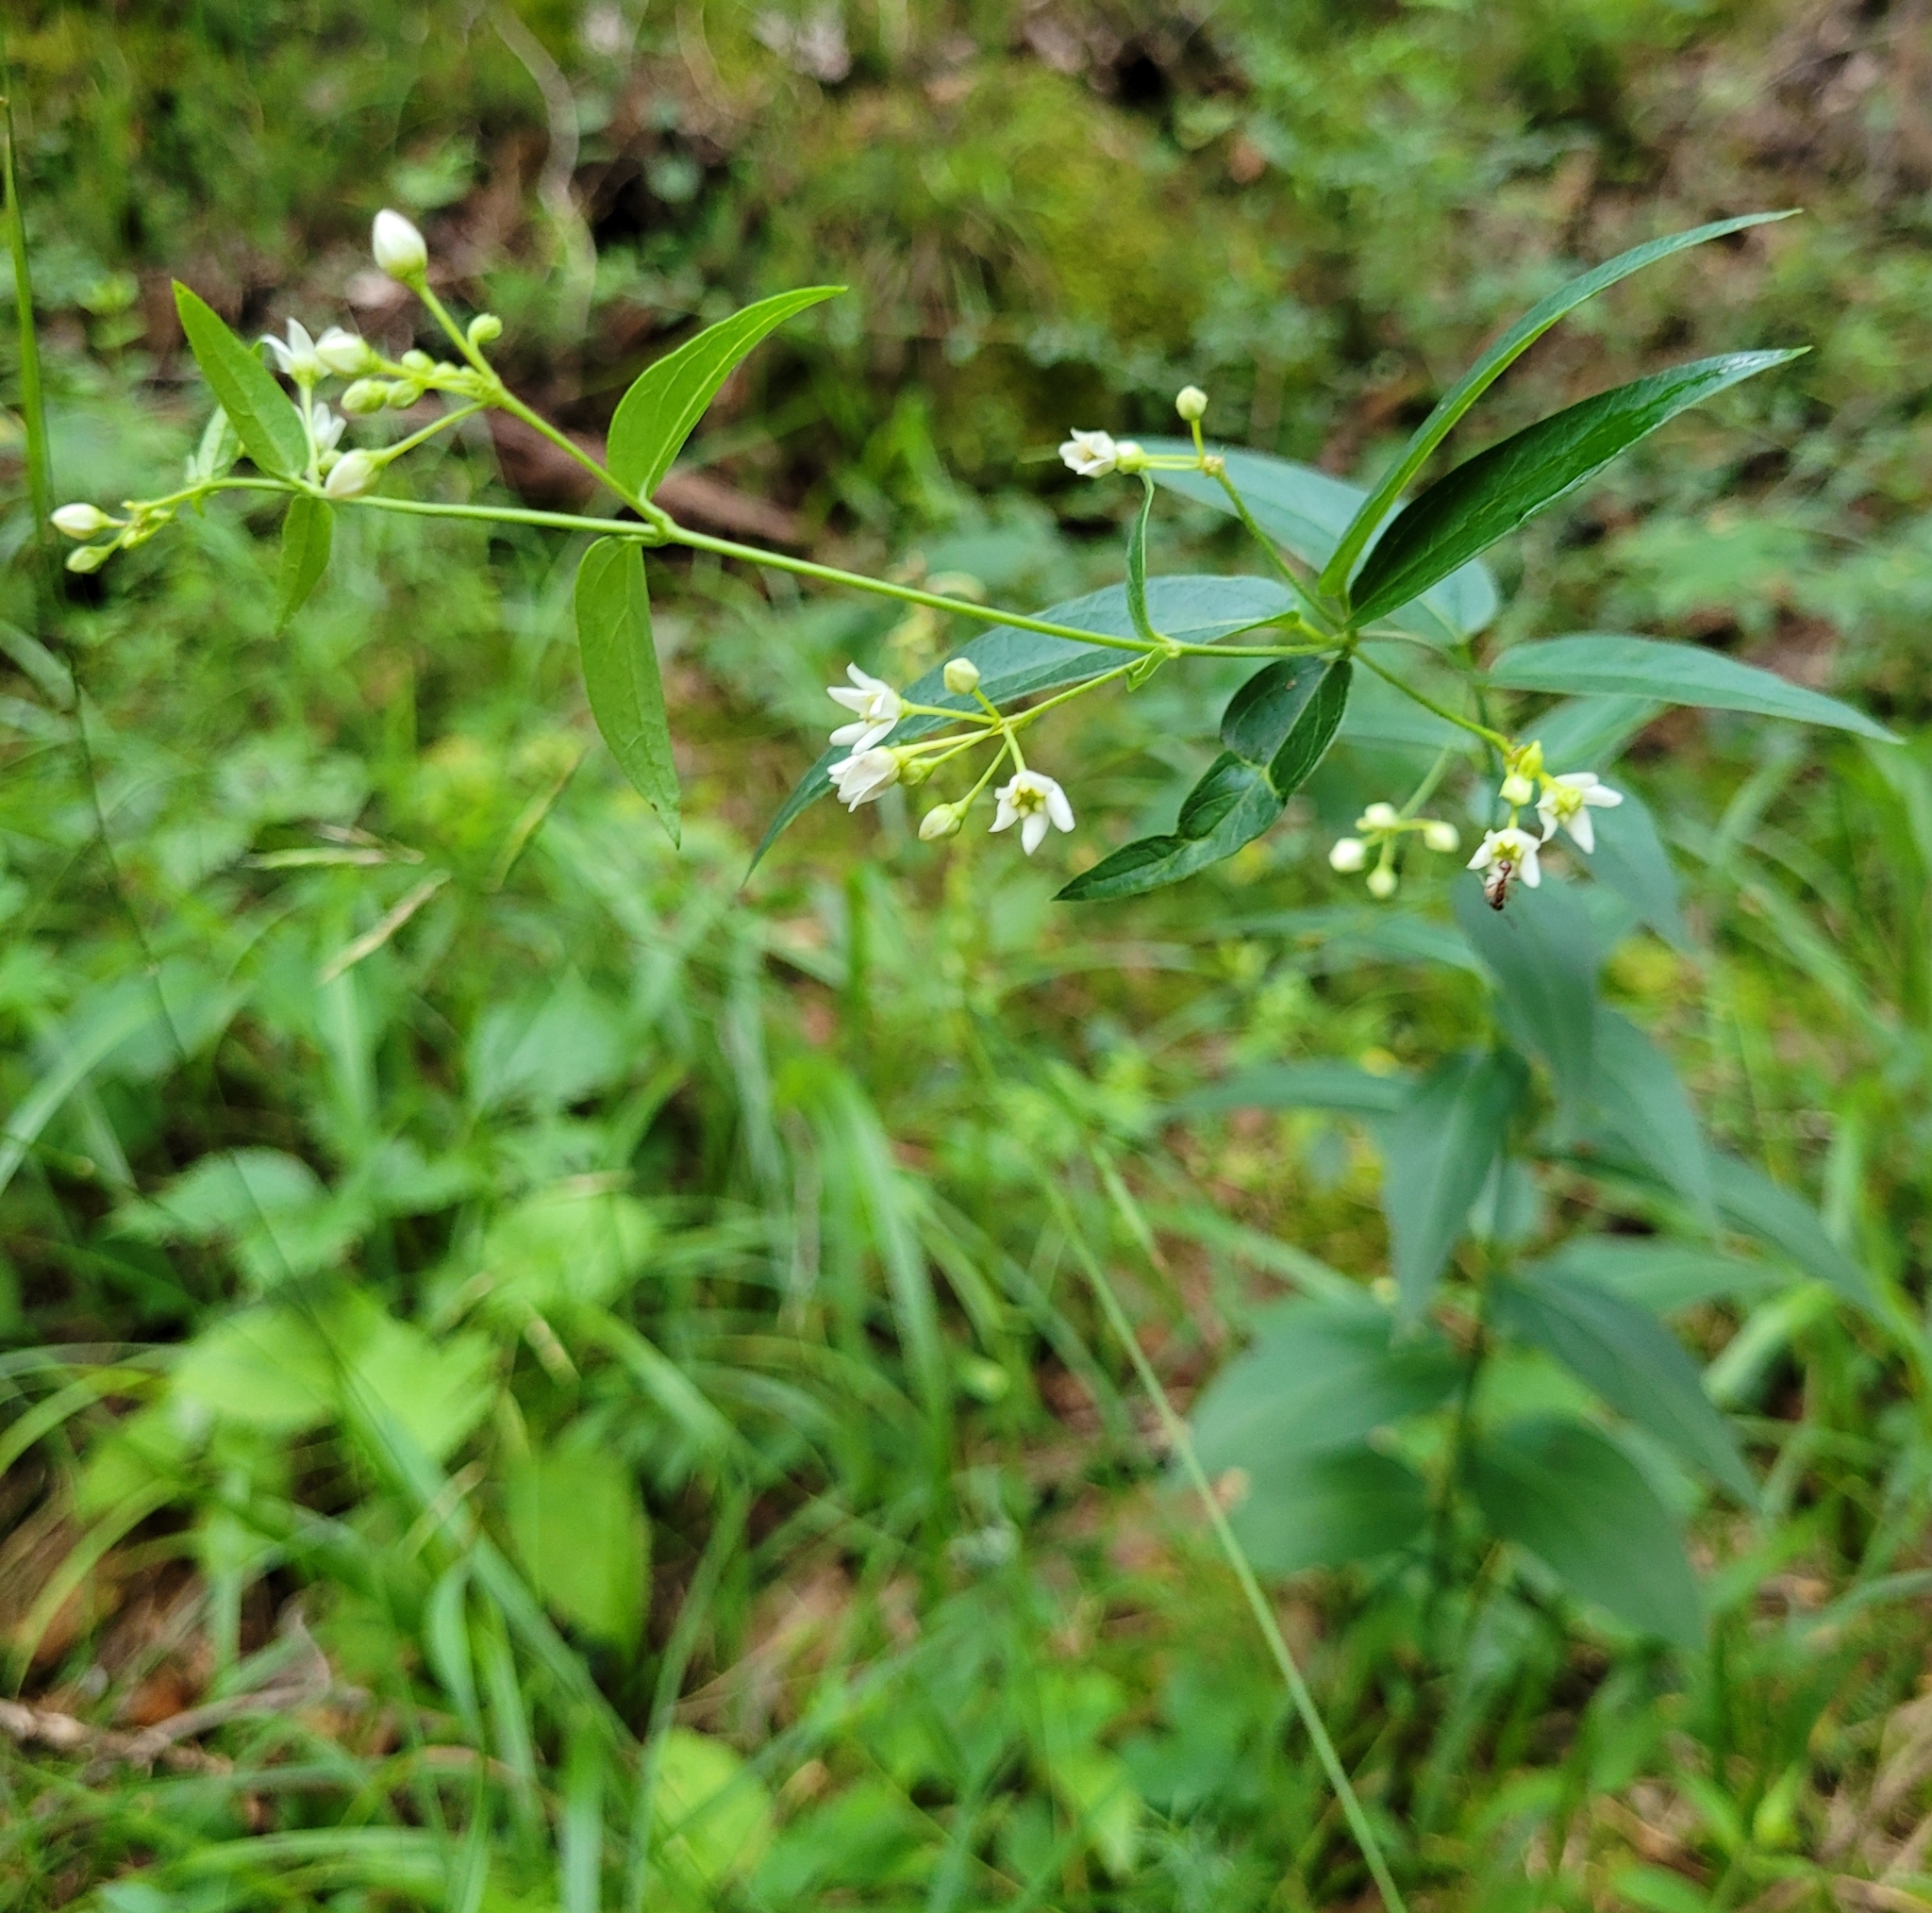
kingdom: Plantae
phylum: Tracheophyta
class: Magnoliopsida
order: Gentianales
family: Apocynaceae
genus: Vincetoxicum
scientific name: Vincetoxicum hirundinaria
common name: White swallowwort
